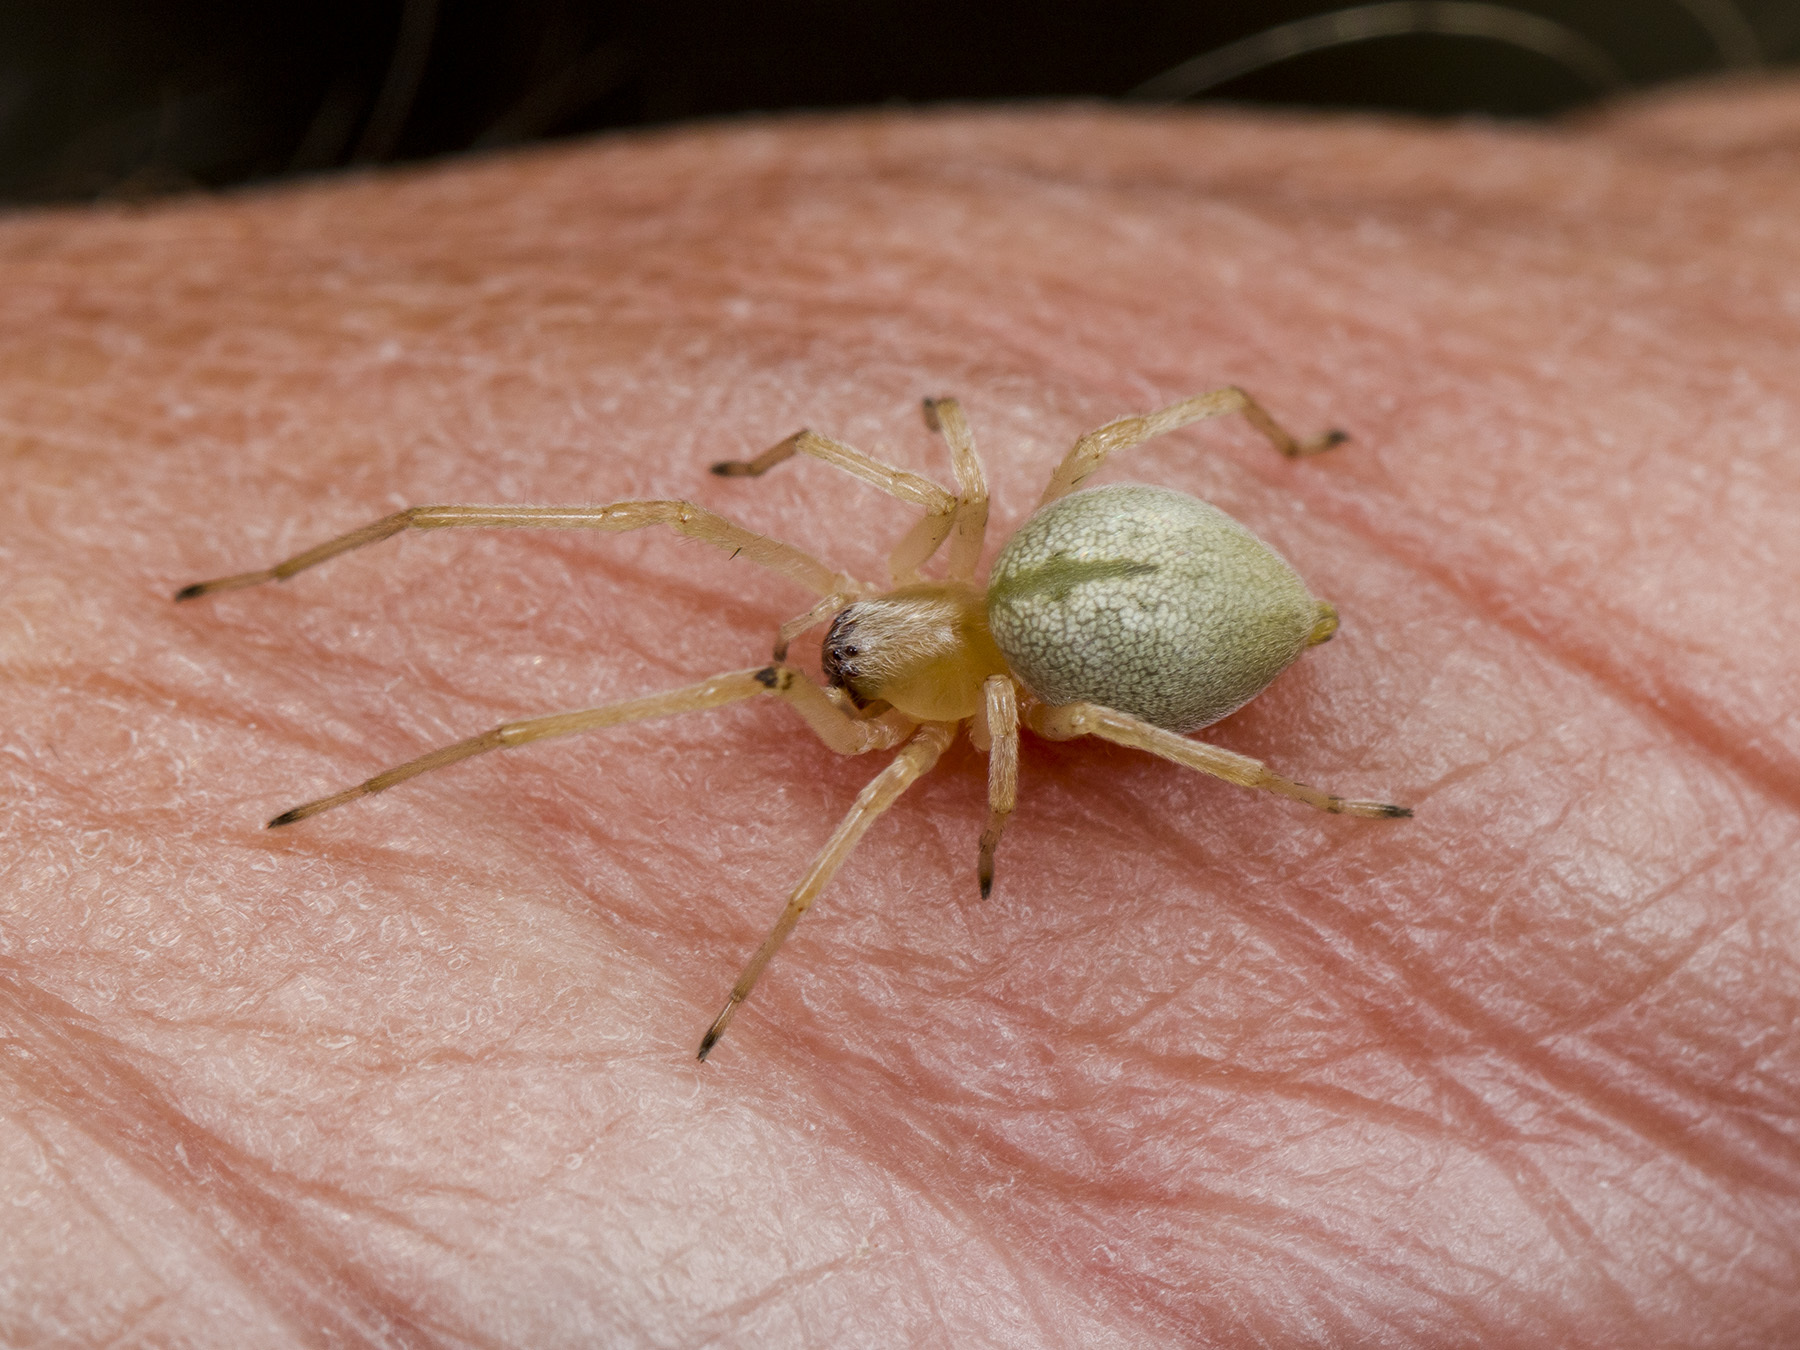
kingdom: Animalia
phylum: Arthropoda
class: Arachnida
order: Araneae
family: Cheiracanthiidae
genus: Cheiracanthium
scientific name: Cheiracanthium virescens
